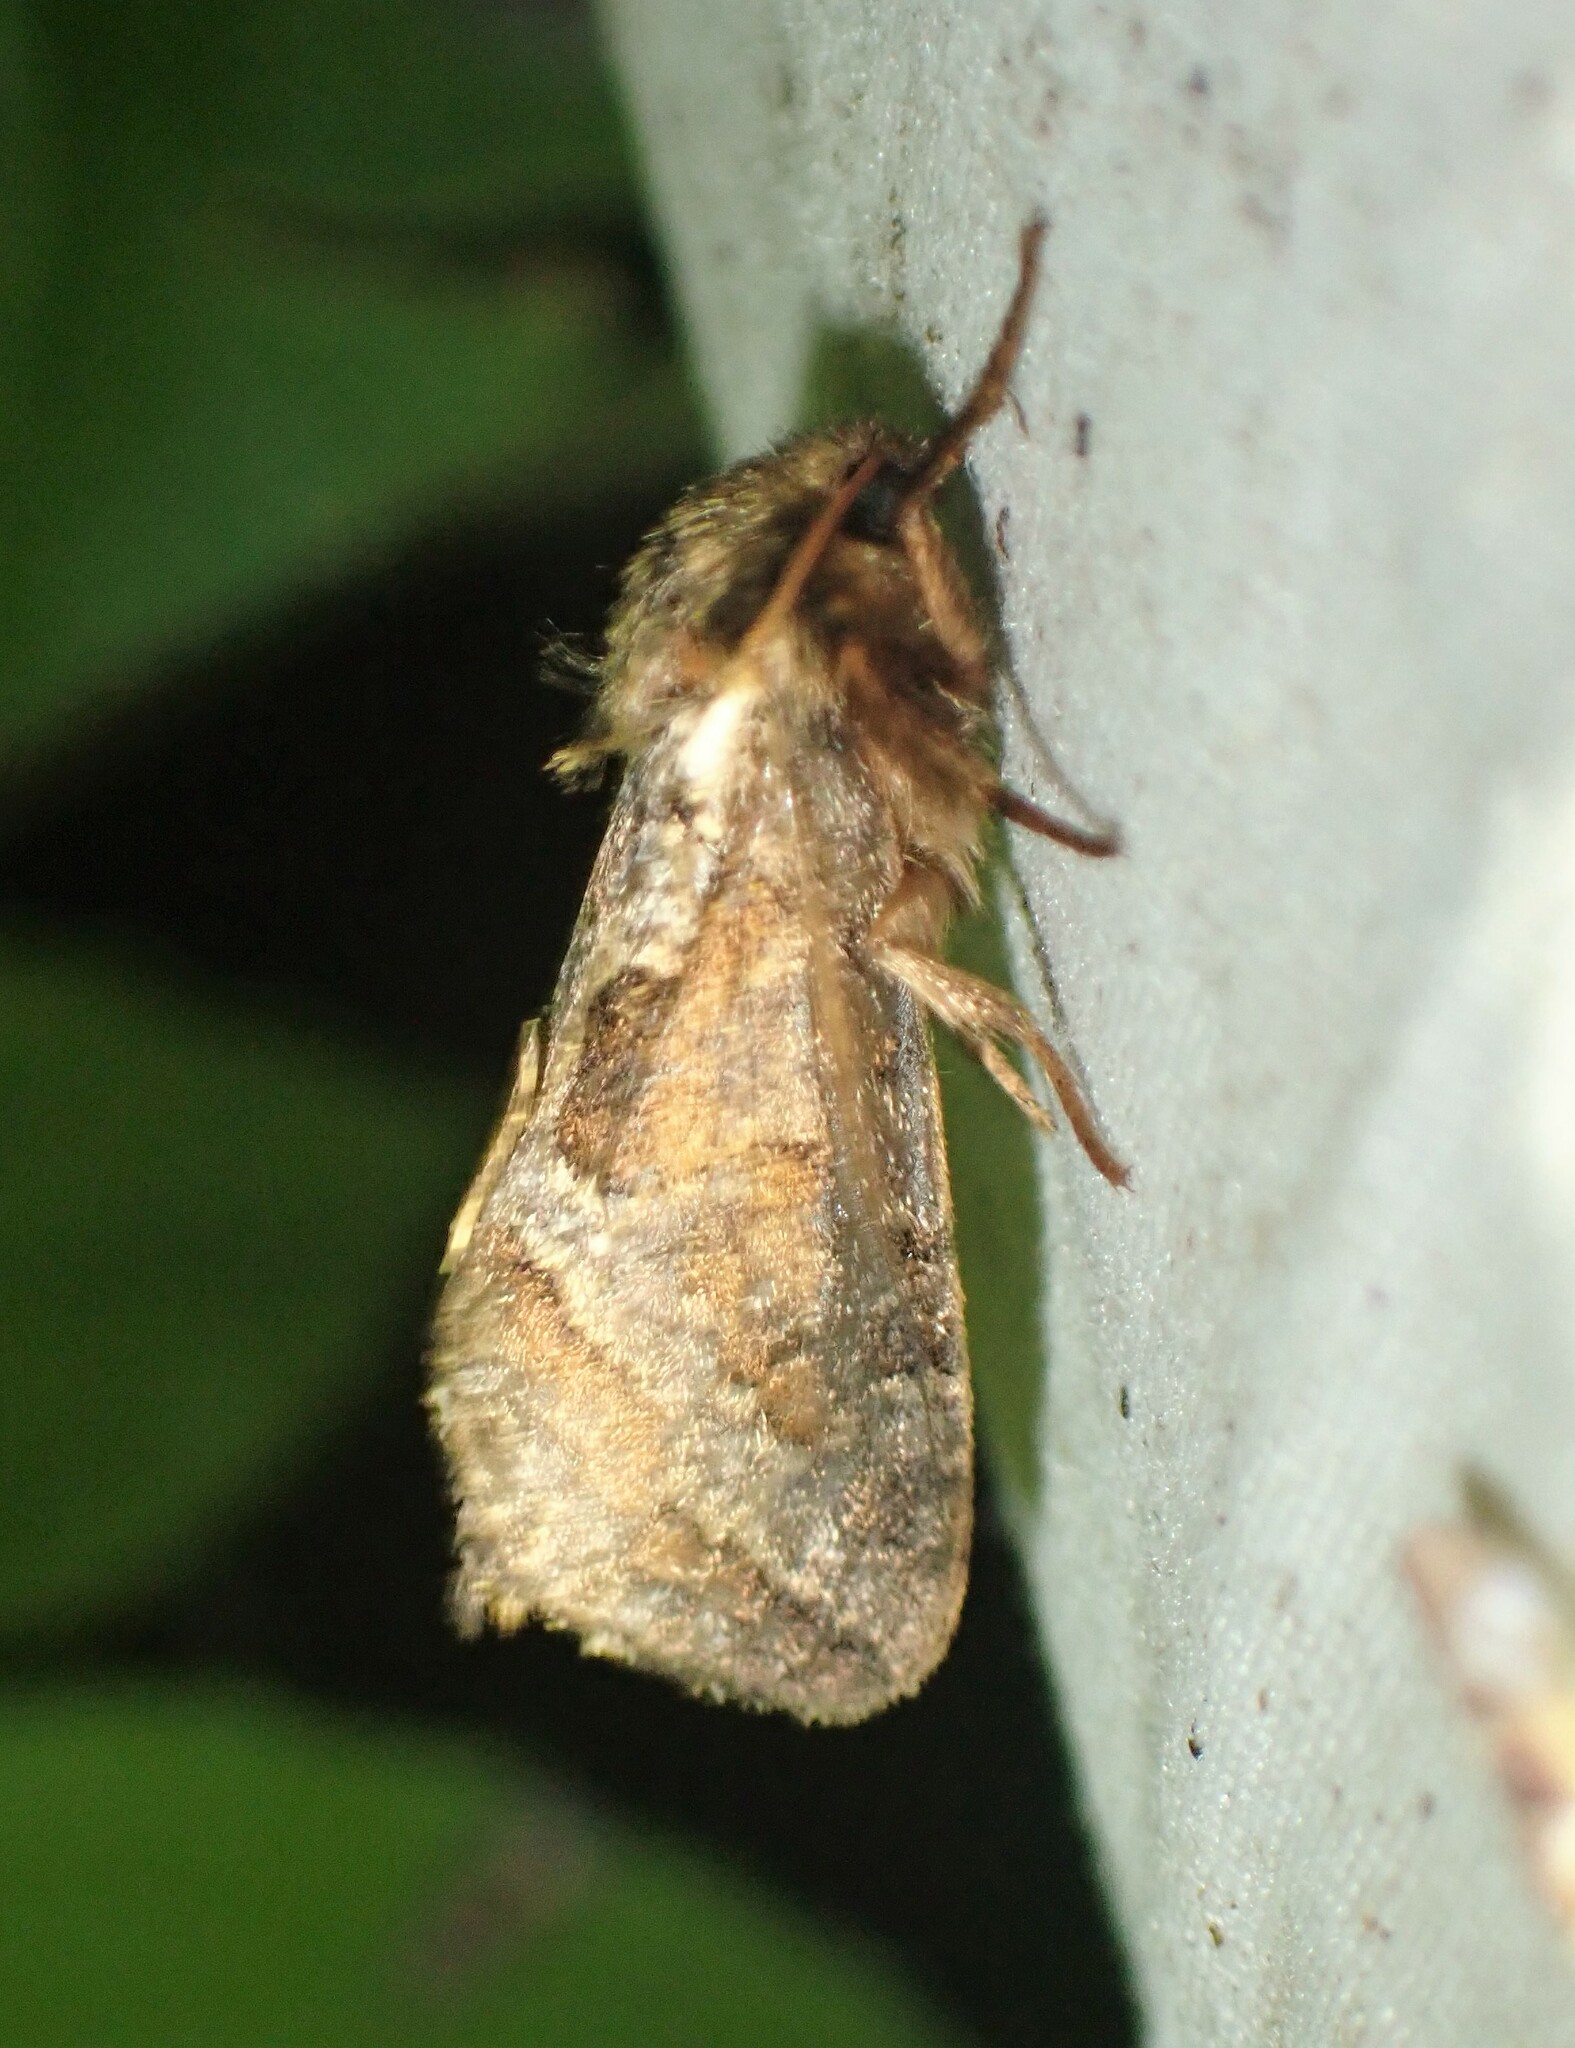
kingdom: Animalia
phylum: Arthropoda
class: Insecta
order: Lepidoptera
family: Hepialidae
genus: Korscheltellus
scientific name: Korscheltellus gracilis
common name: Conifer swift moth
